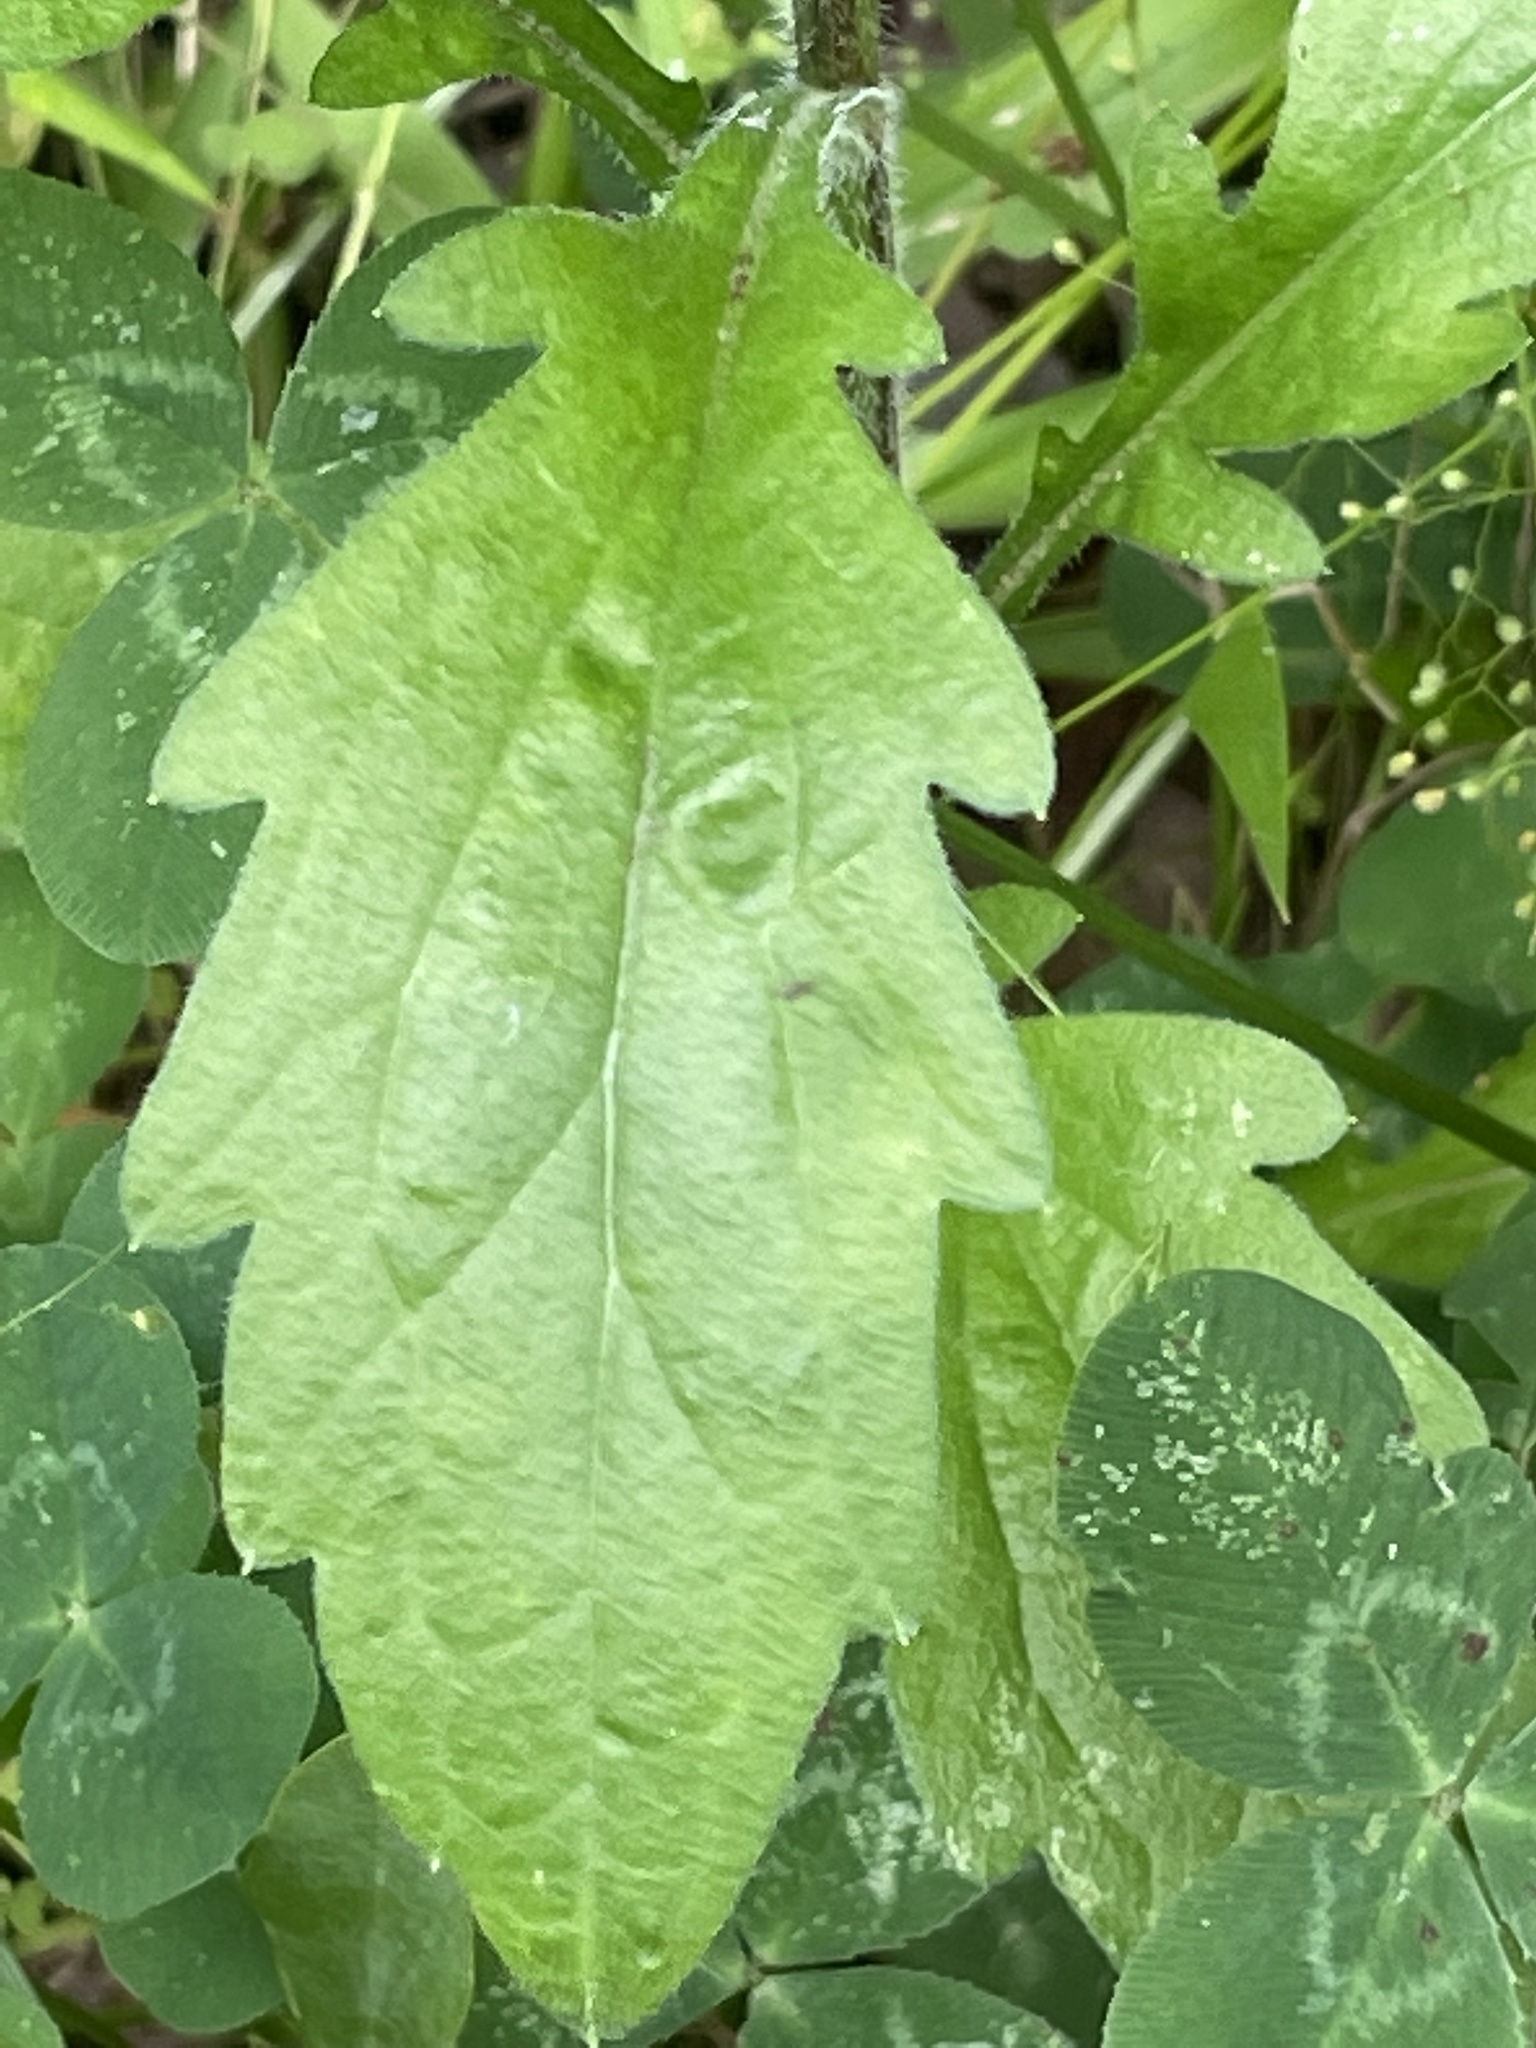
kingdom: Plantae
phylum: Tracheophyta
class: Magnoliopsida
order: Asterales
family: Asteraceae
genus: Erigeron
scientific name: Erigeron annuus
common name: Tall fleabane
